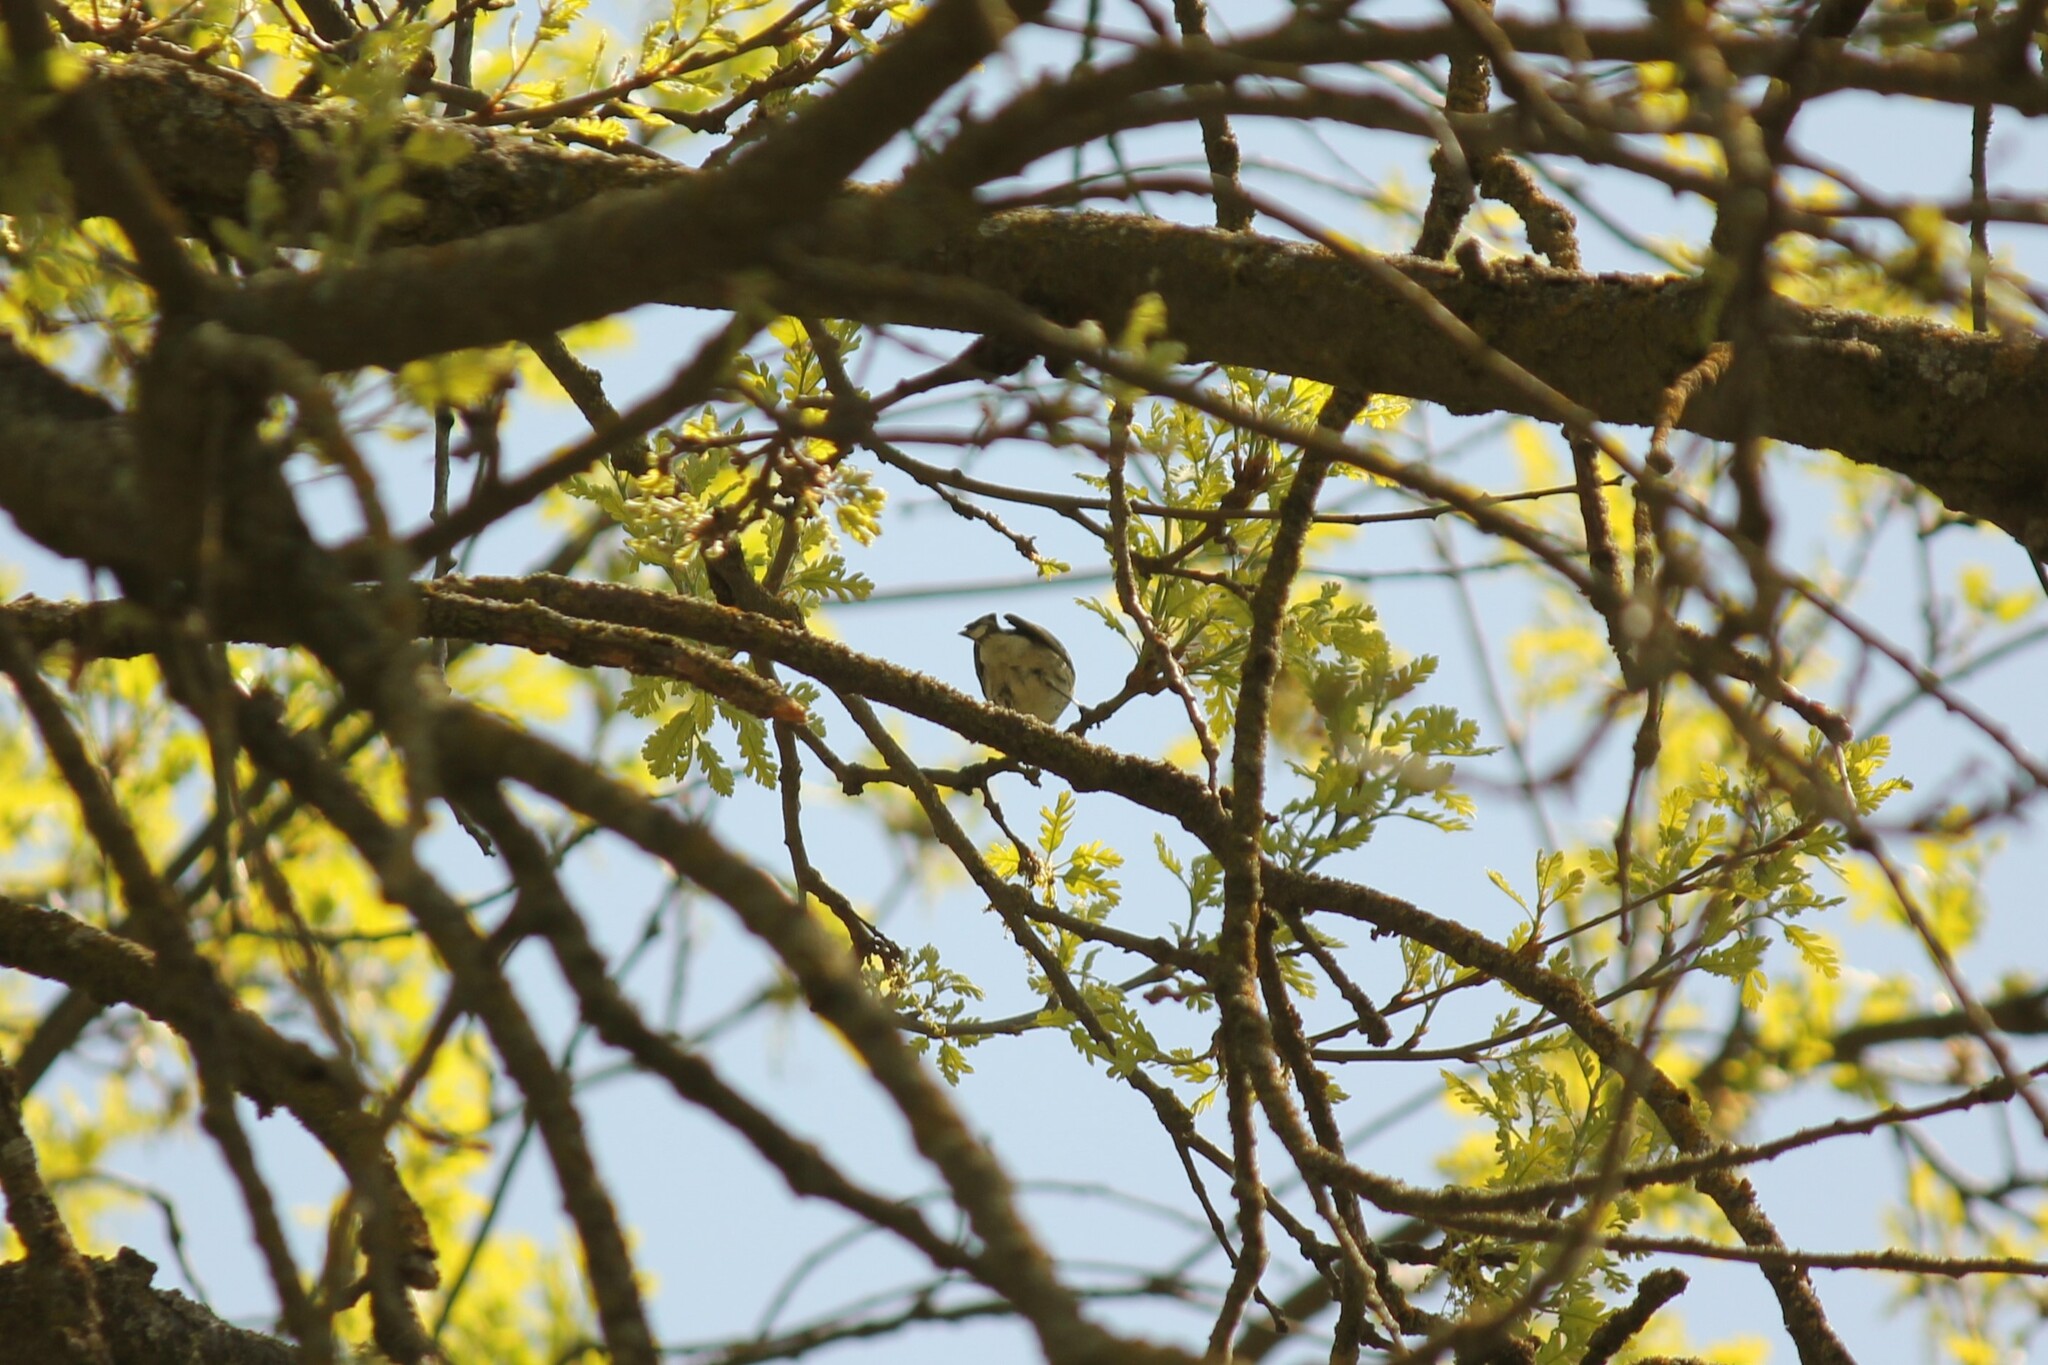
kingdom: Animalia
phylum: Chordata
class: Aves
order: Passeriformes
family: Parulidae
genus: Setophaga
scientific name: Setophaga coronata
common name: Myrtle warbler
